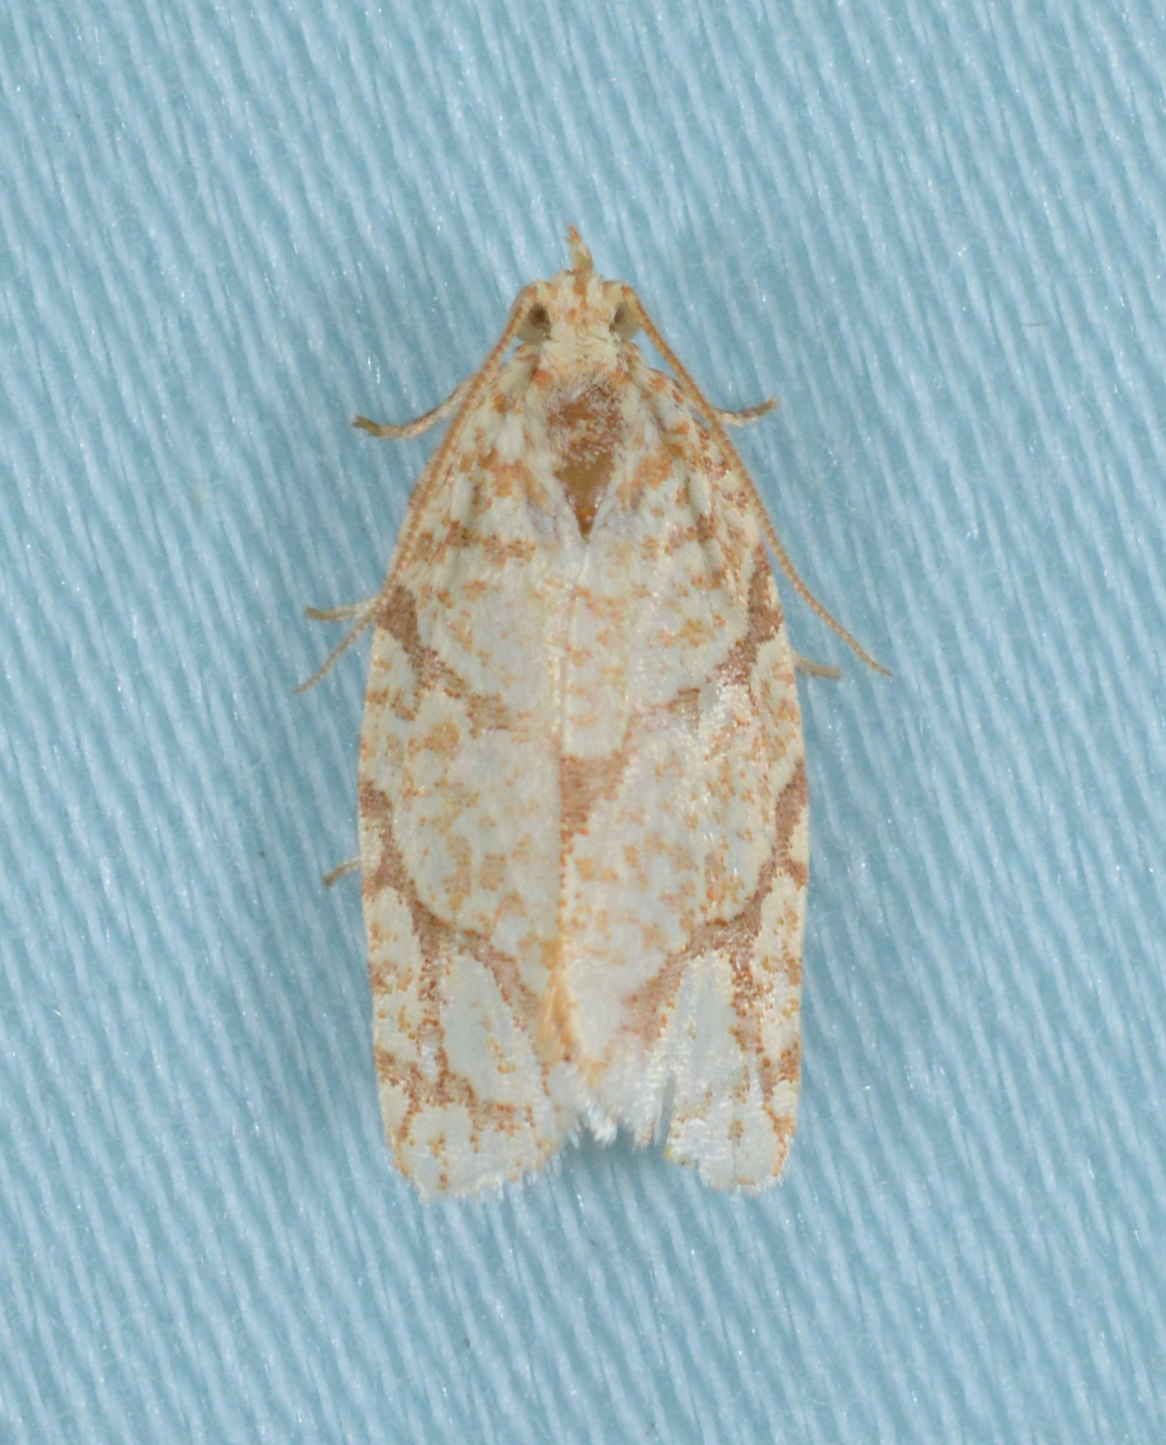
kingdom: Animalia
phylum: Arthropoda
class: Insecta
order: Lepidoptera
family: Tortricidae
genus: Argyrotaenia
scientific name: Argyrotaenia quercifoliana
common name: Yellow-winged oak leafroller moth
